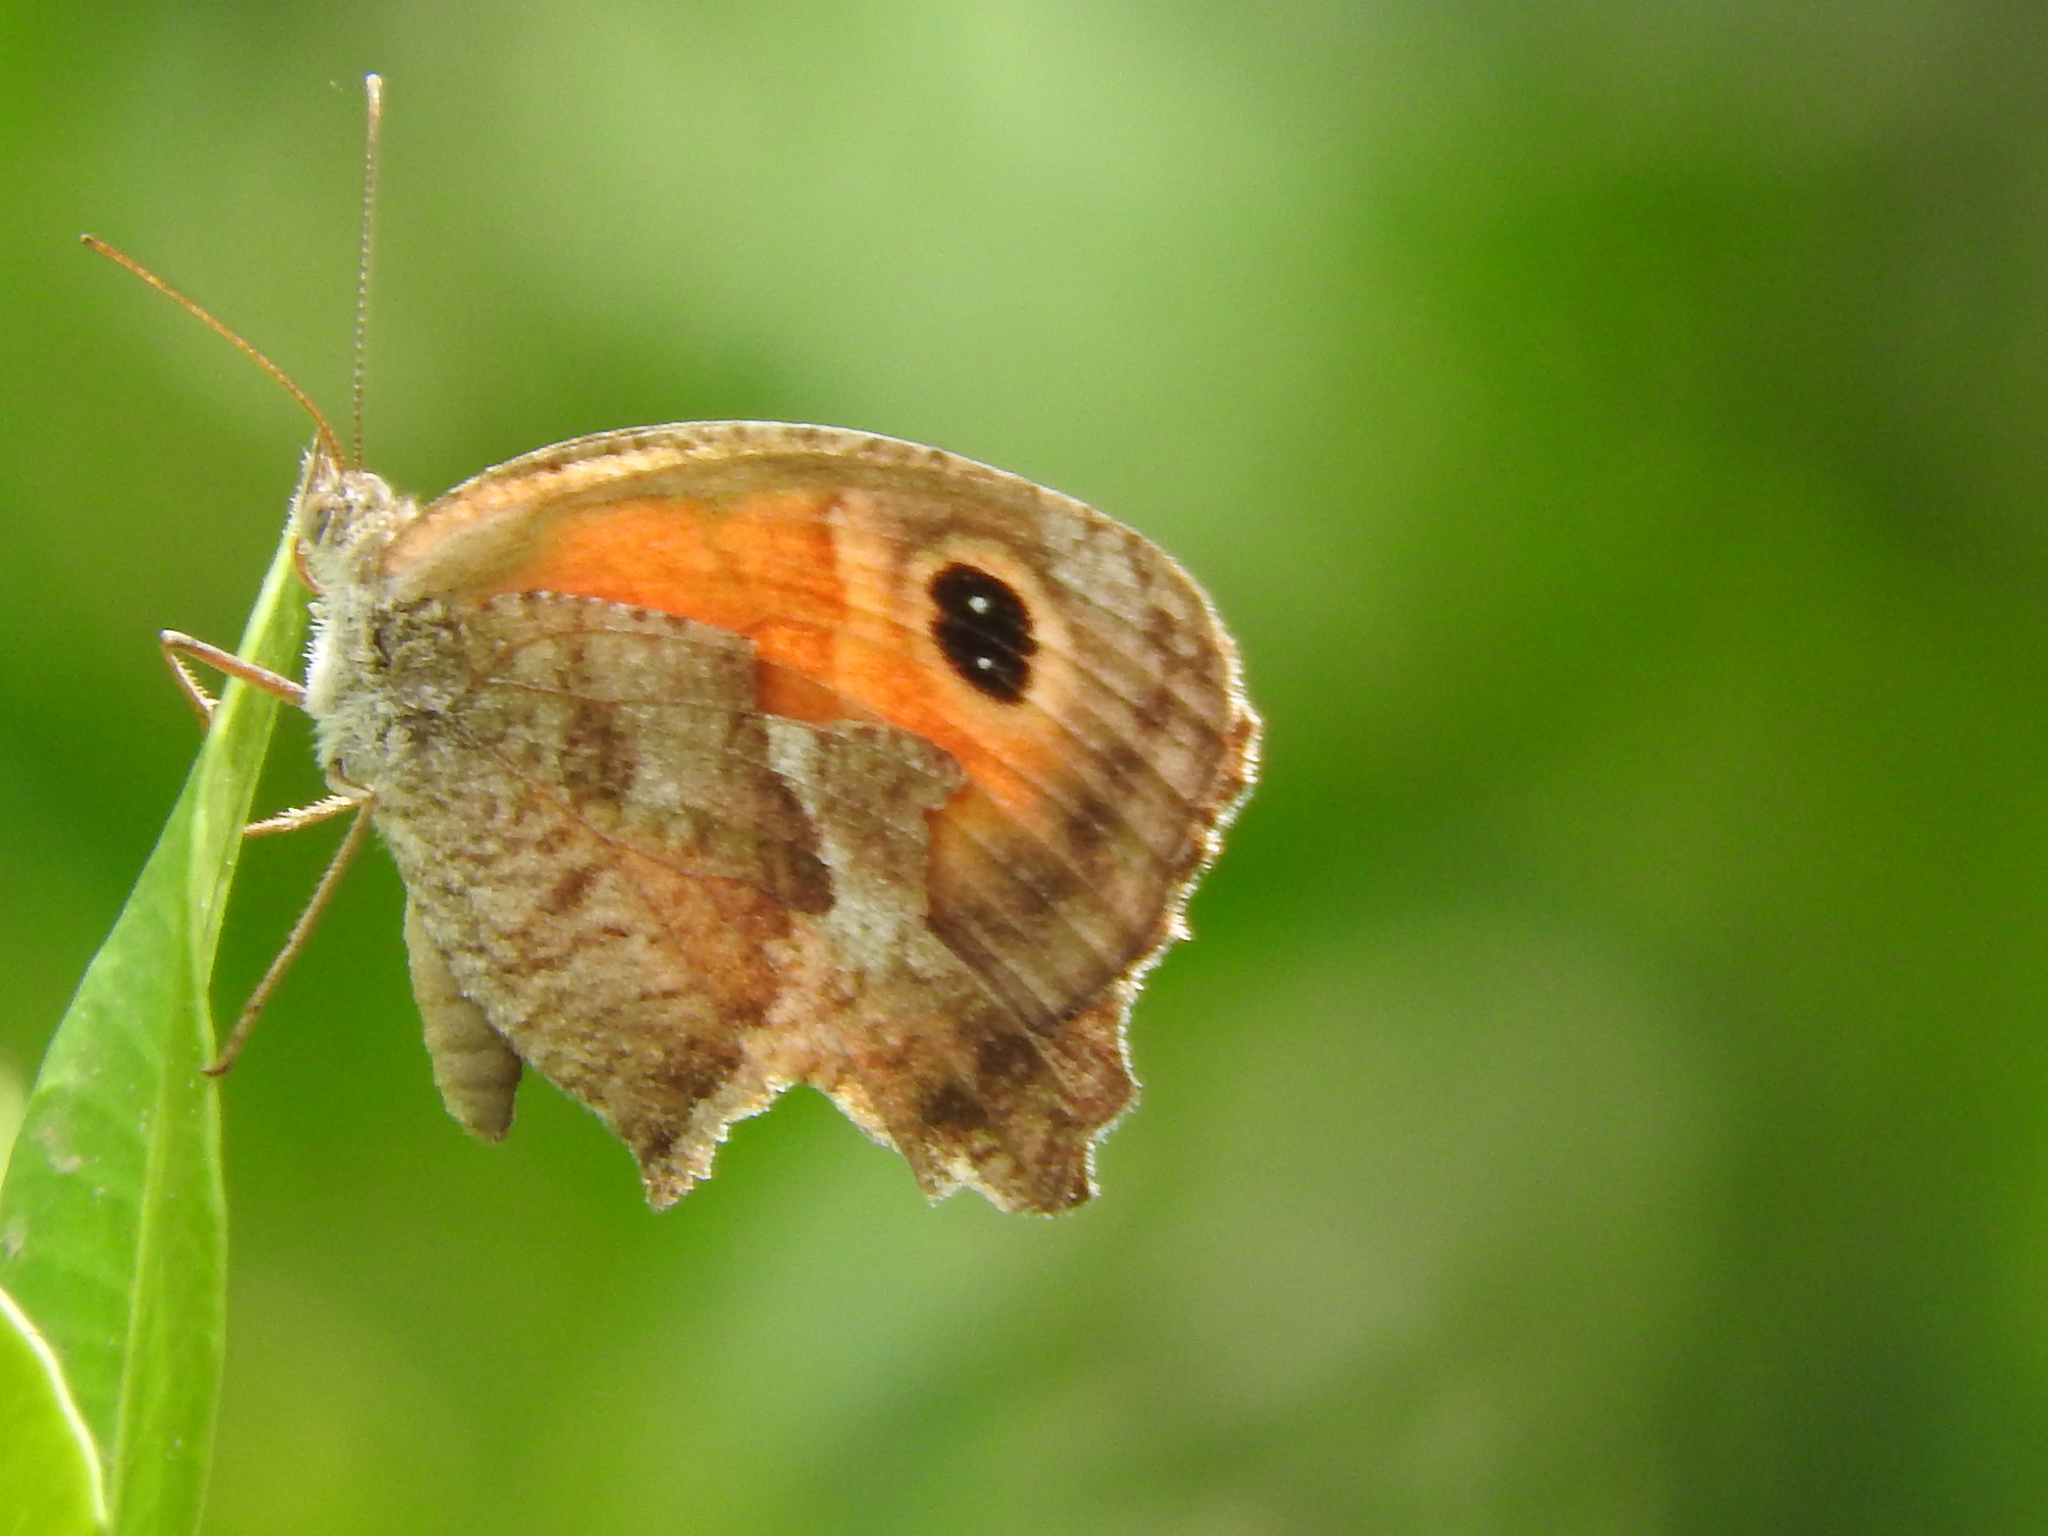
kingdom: Animalia
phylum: Arthropoda
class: Insecta
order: Lepidoptera
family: Nymphalidae
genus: Pyronia
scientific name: Pyronia cecilia
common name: Southern gatekeeper
